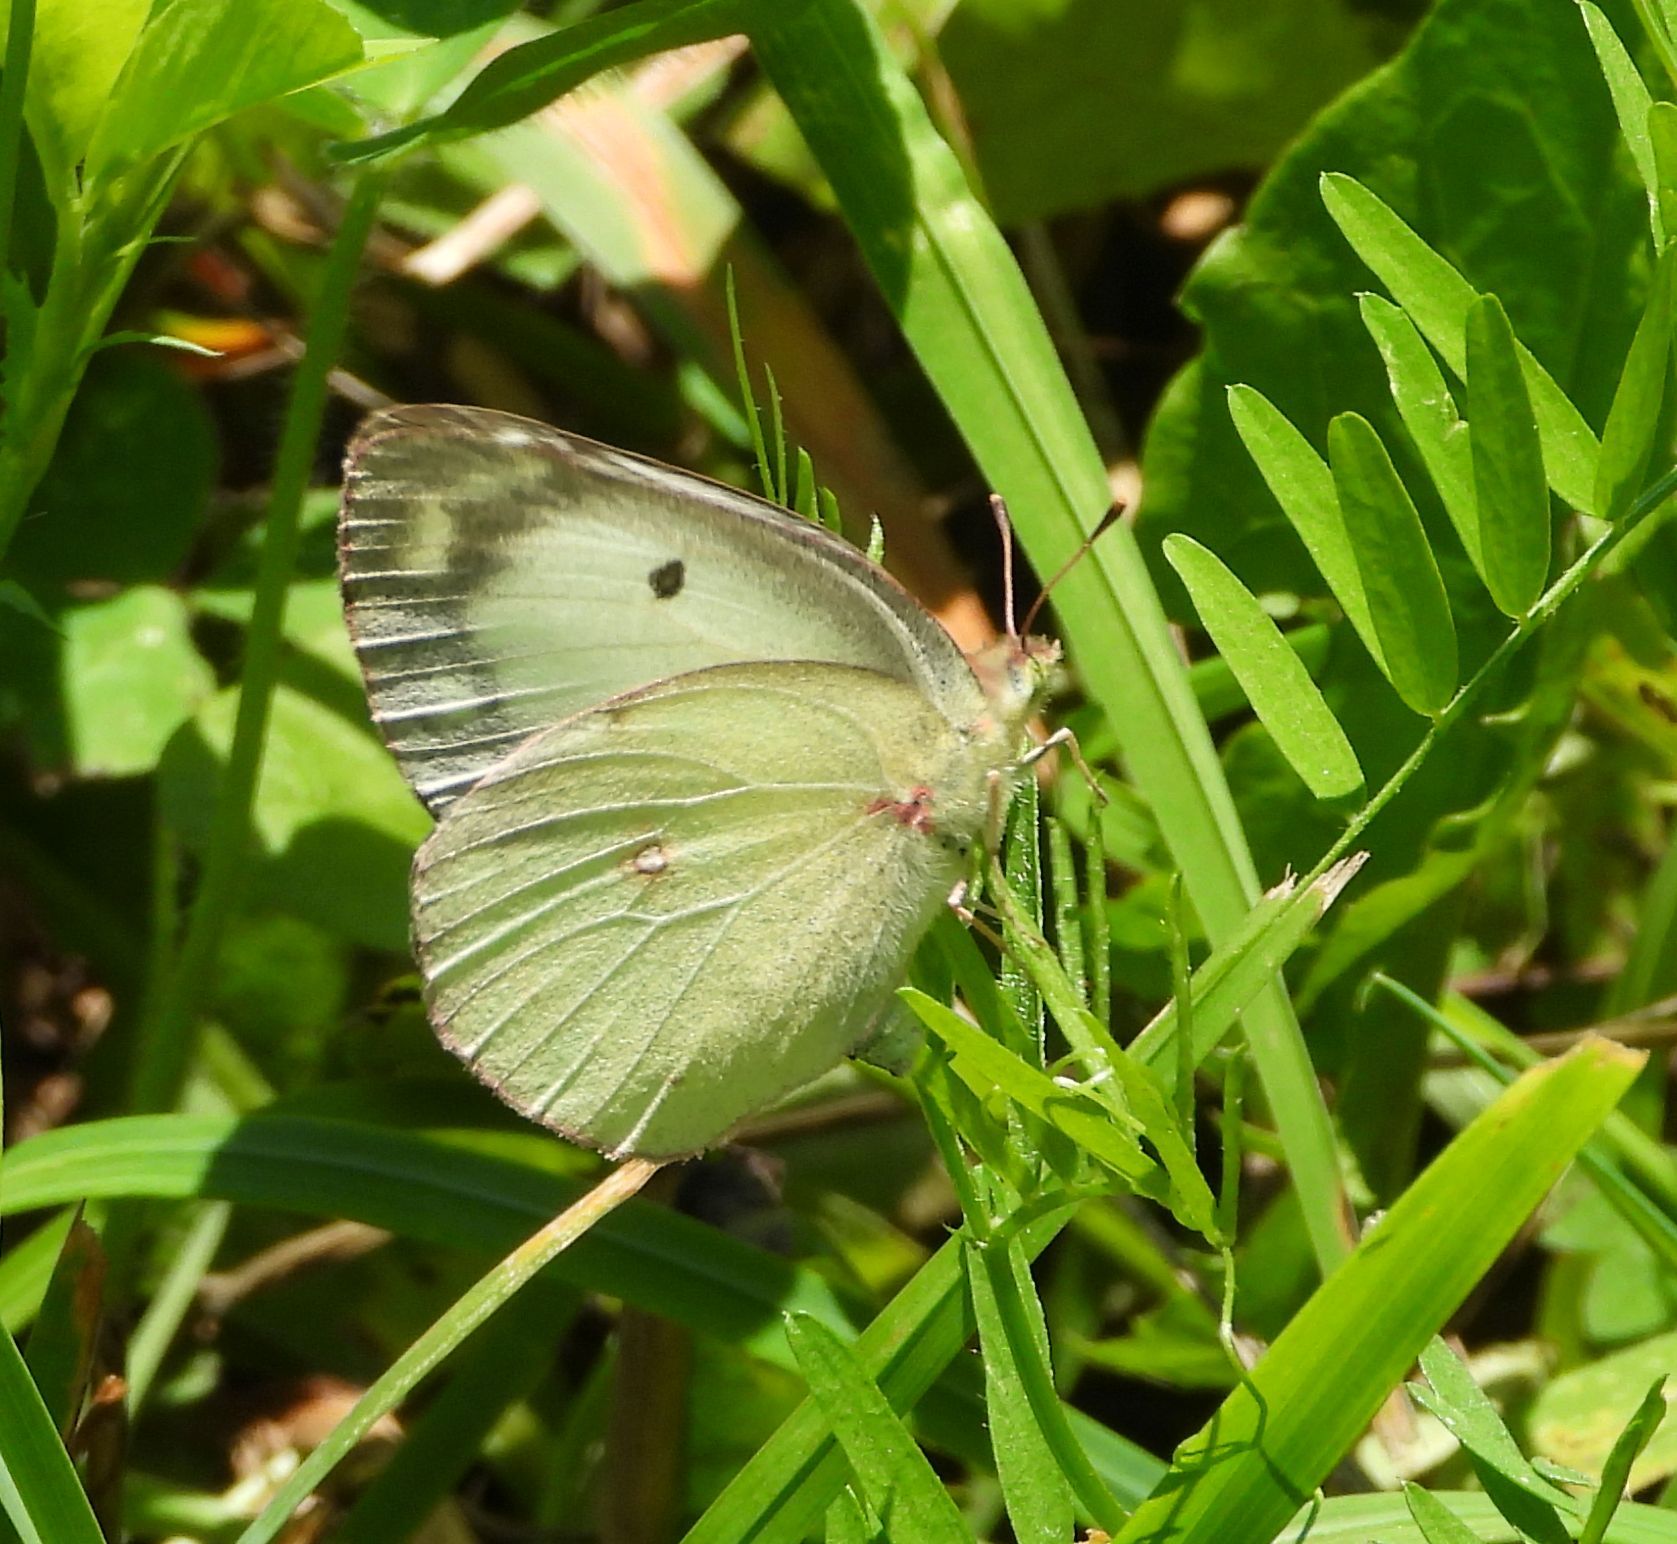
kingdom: Animalia
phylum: Arthropoda
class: Insecta
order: Lepidoptera
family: Pieridae
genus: Colias
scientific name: Colias philodice
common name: Clouded sulphur
